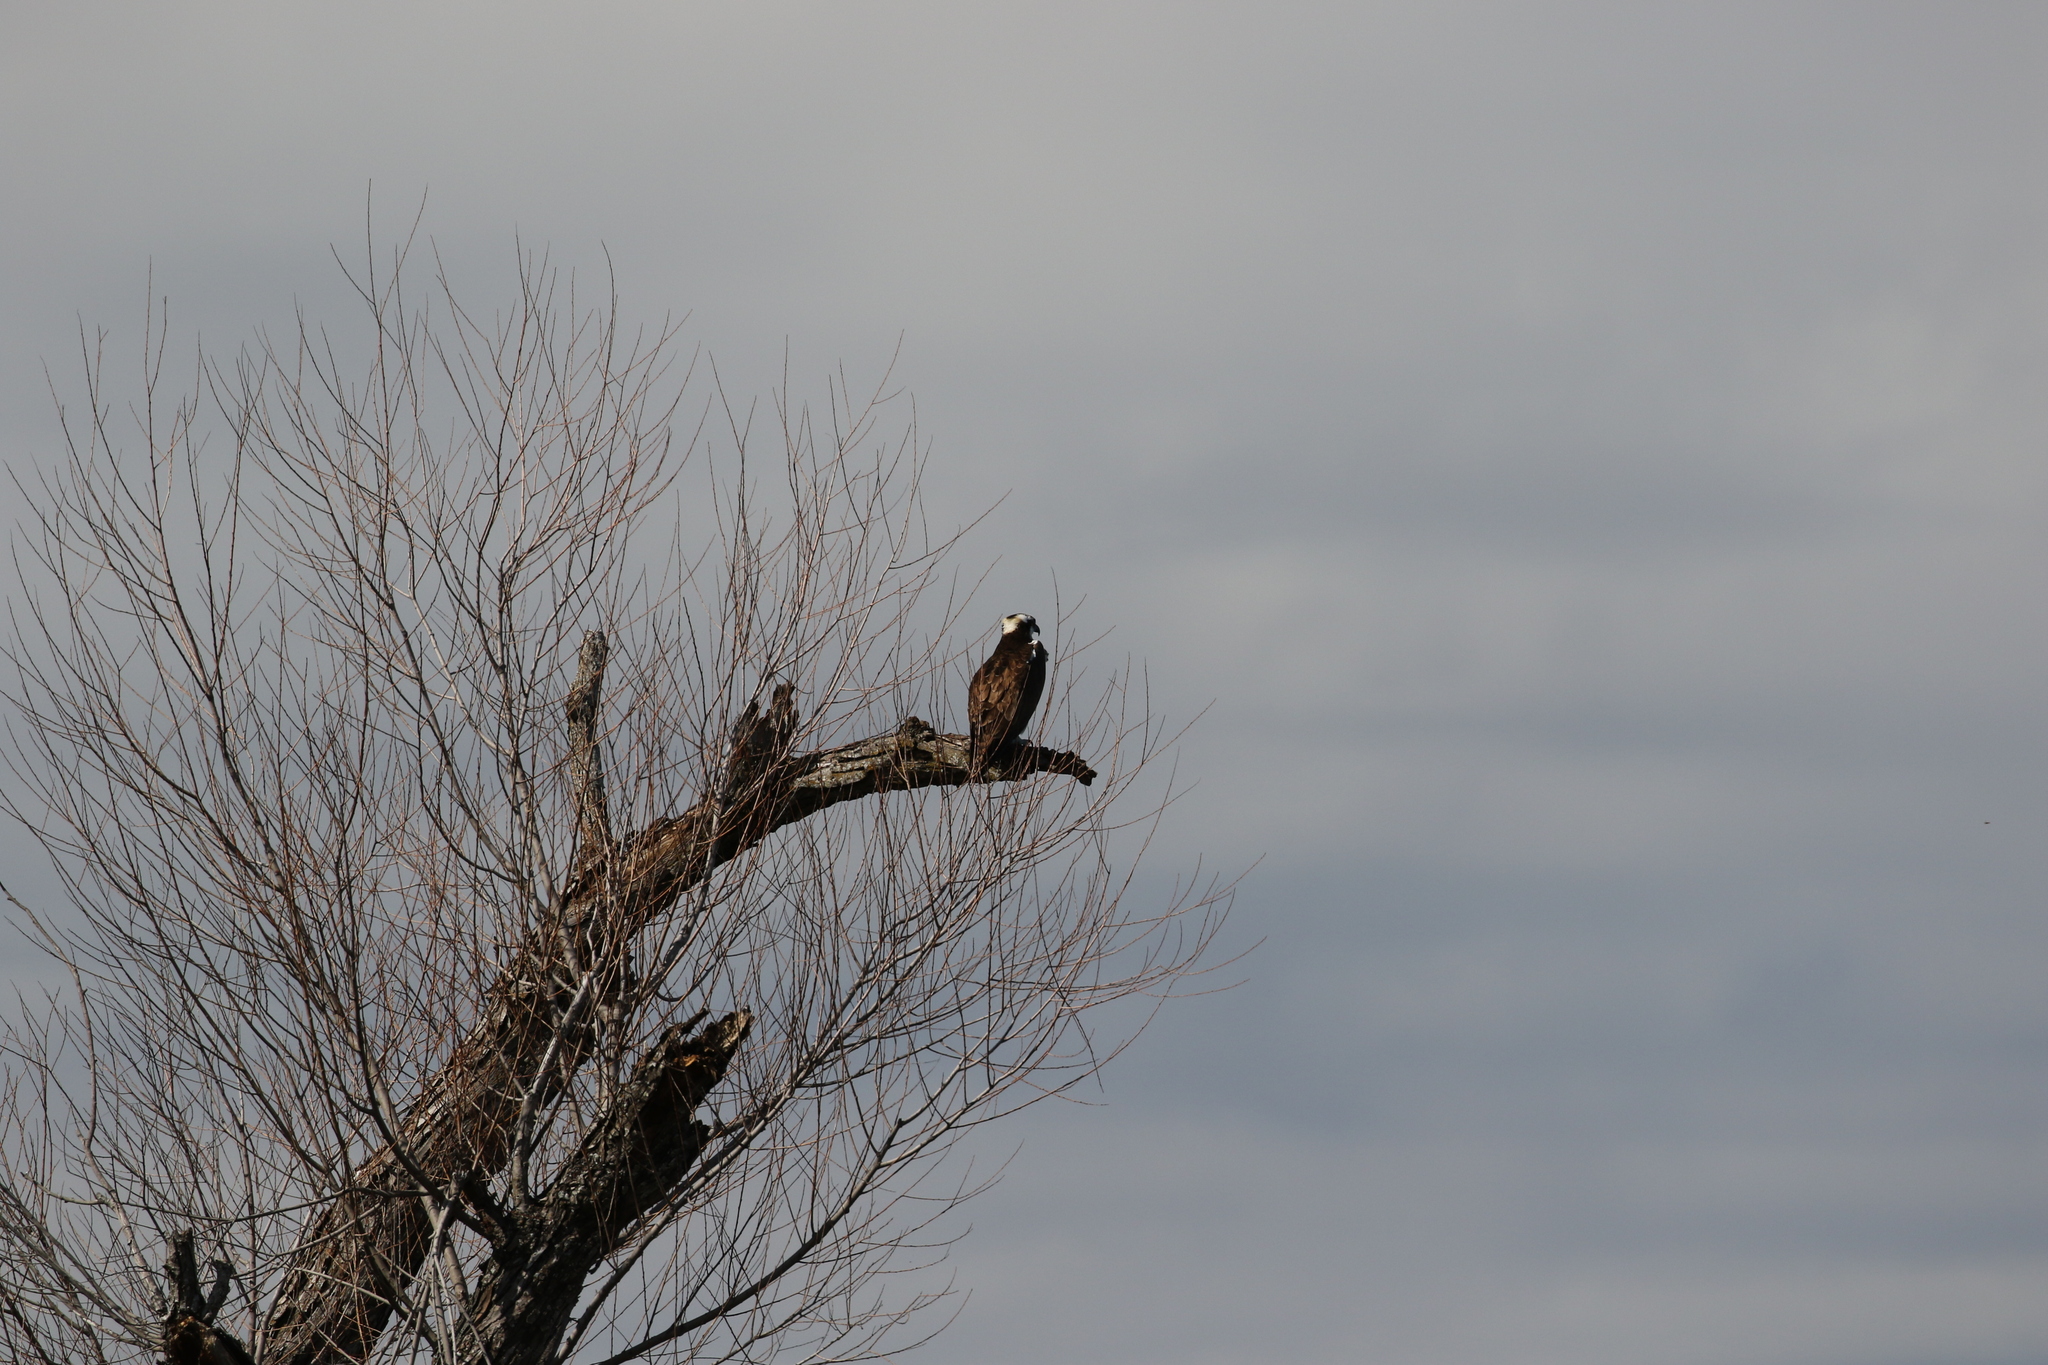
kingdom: Animalia
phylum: Chordata
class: Aves
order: Accipitriformes
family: Pandionidae
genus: Pandion
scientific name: Pandion haliaetus
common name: Osprey
